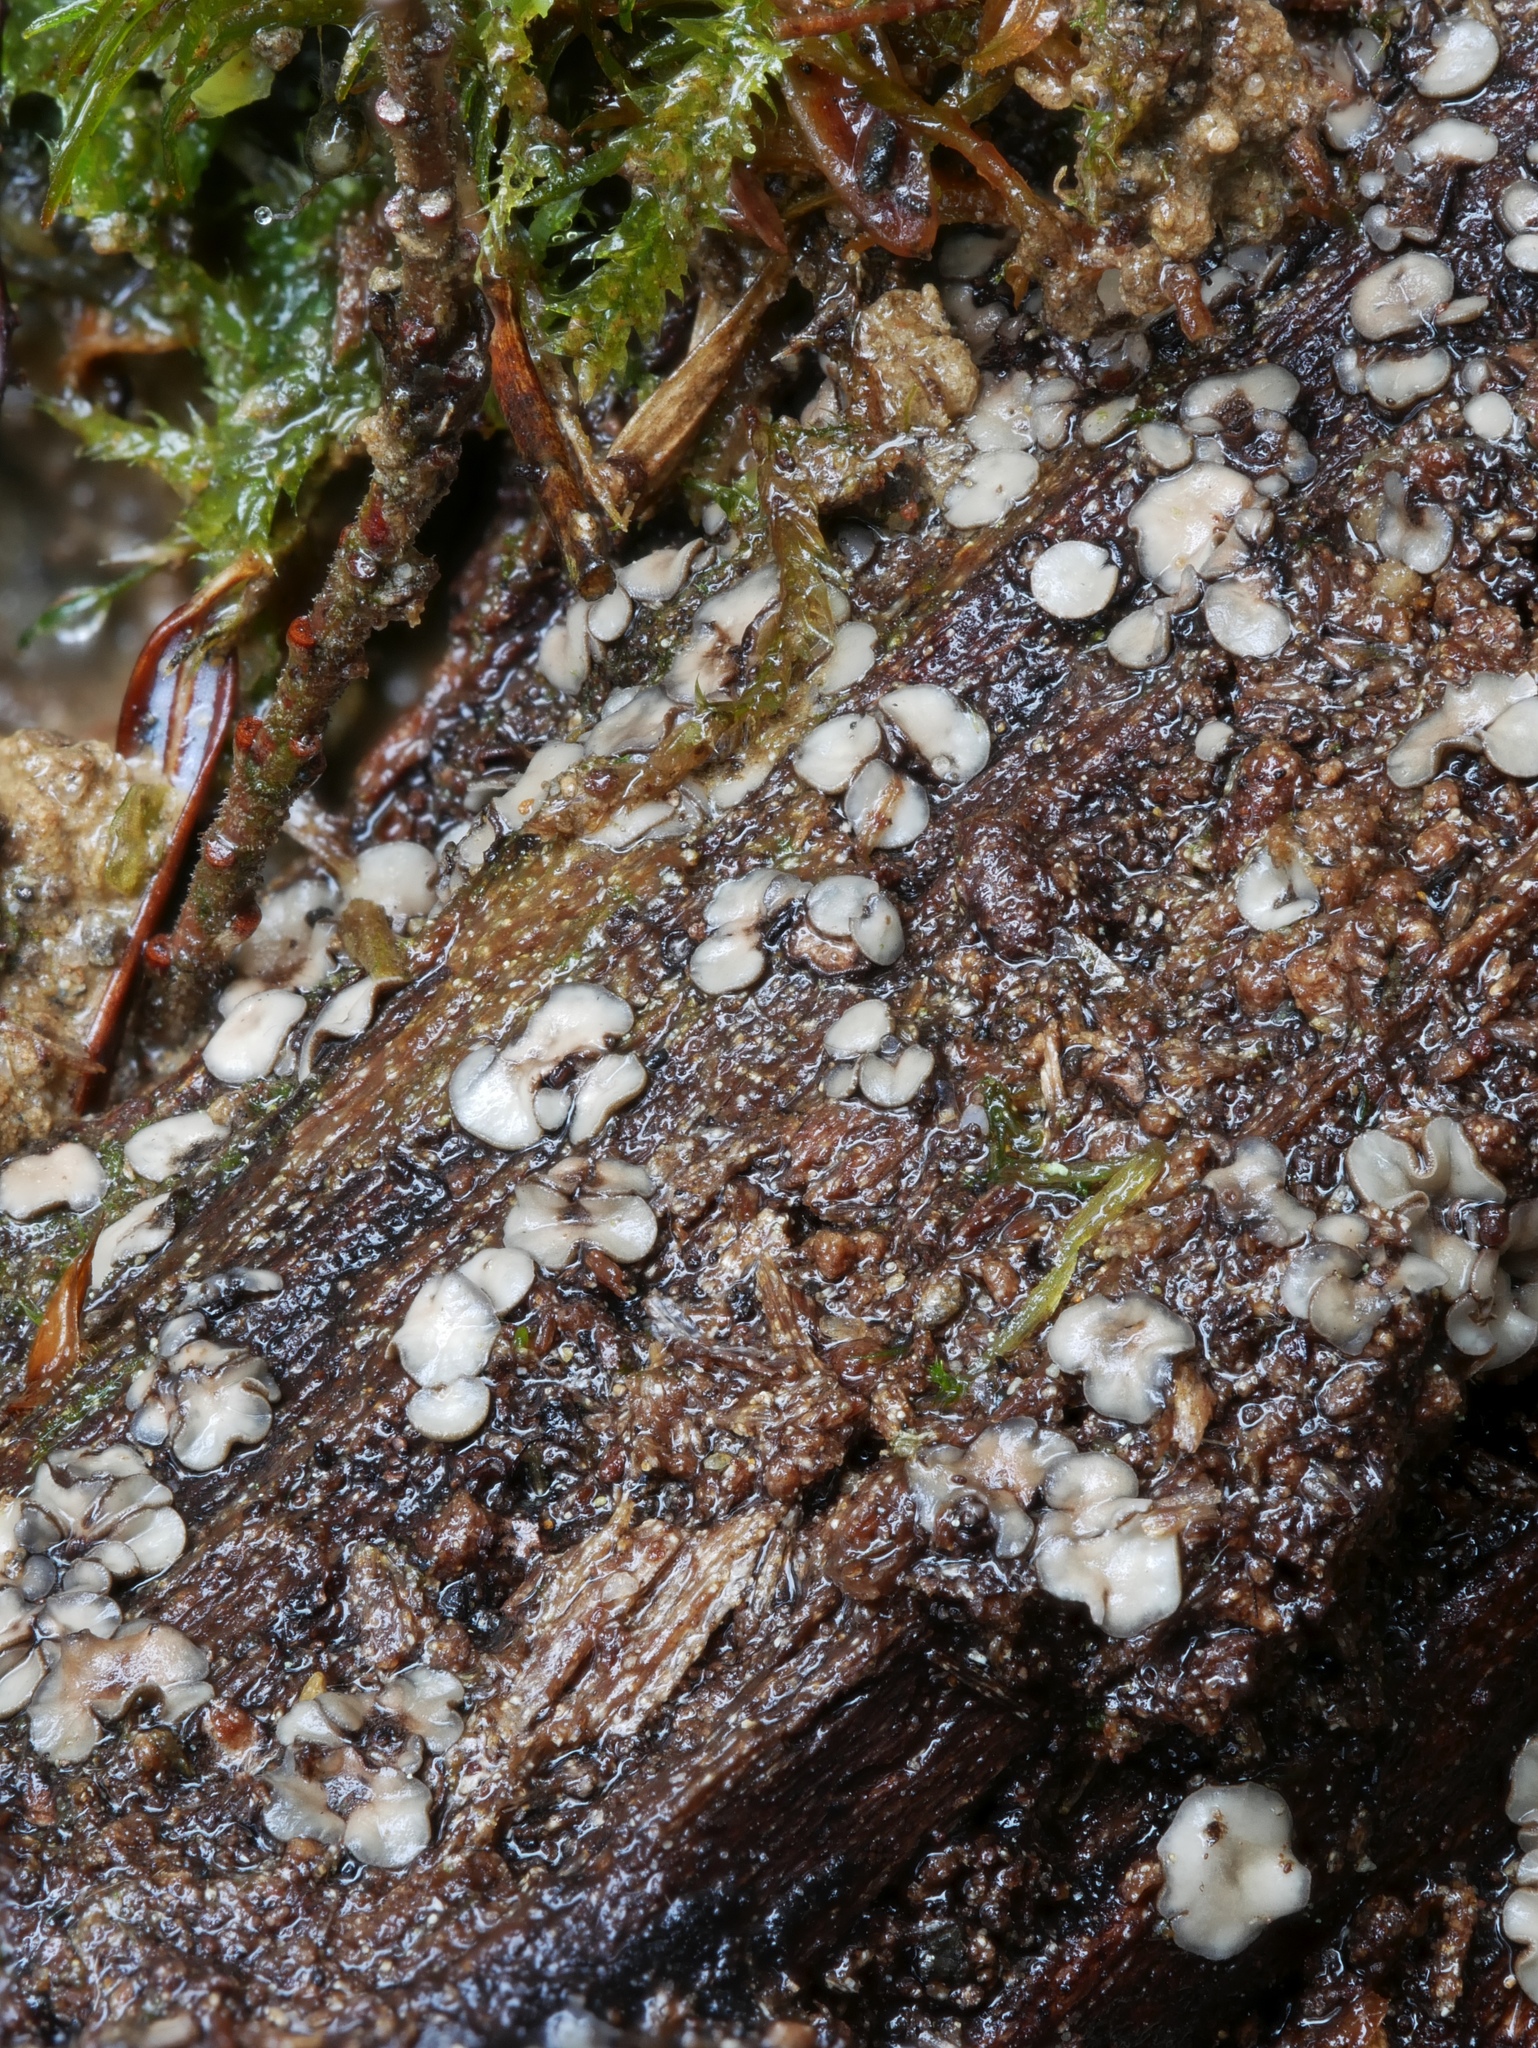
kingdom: Fungi
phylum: Ascomycota
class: Leotiomycetes
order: Helotiales
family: Mollisiaceae
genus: Mollisia
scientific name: Mollisia melaleuca
